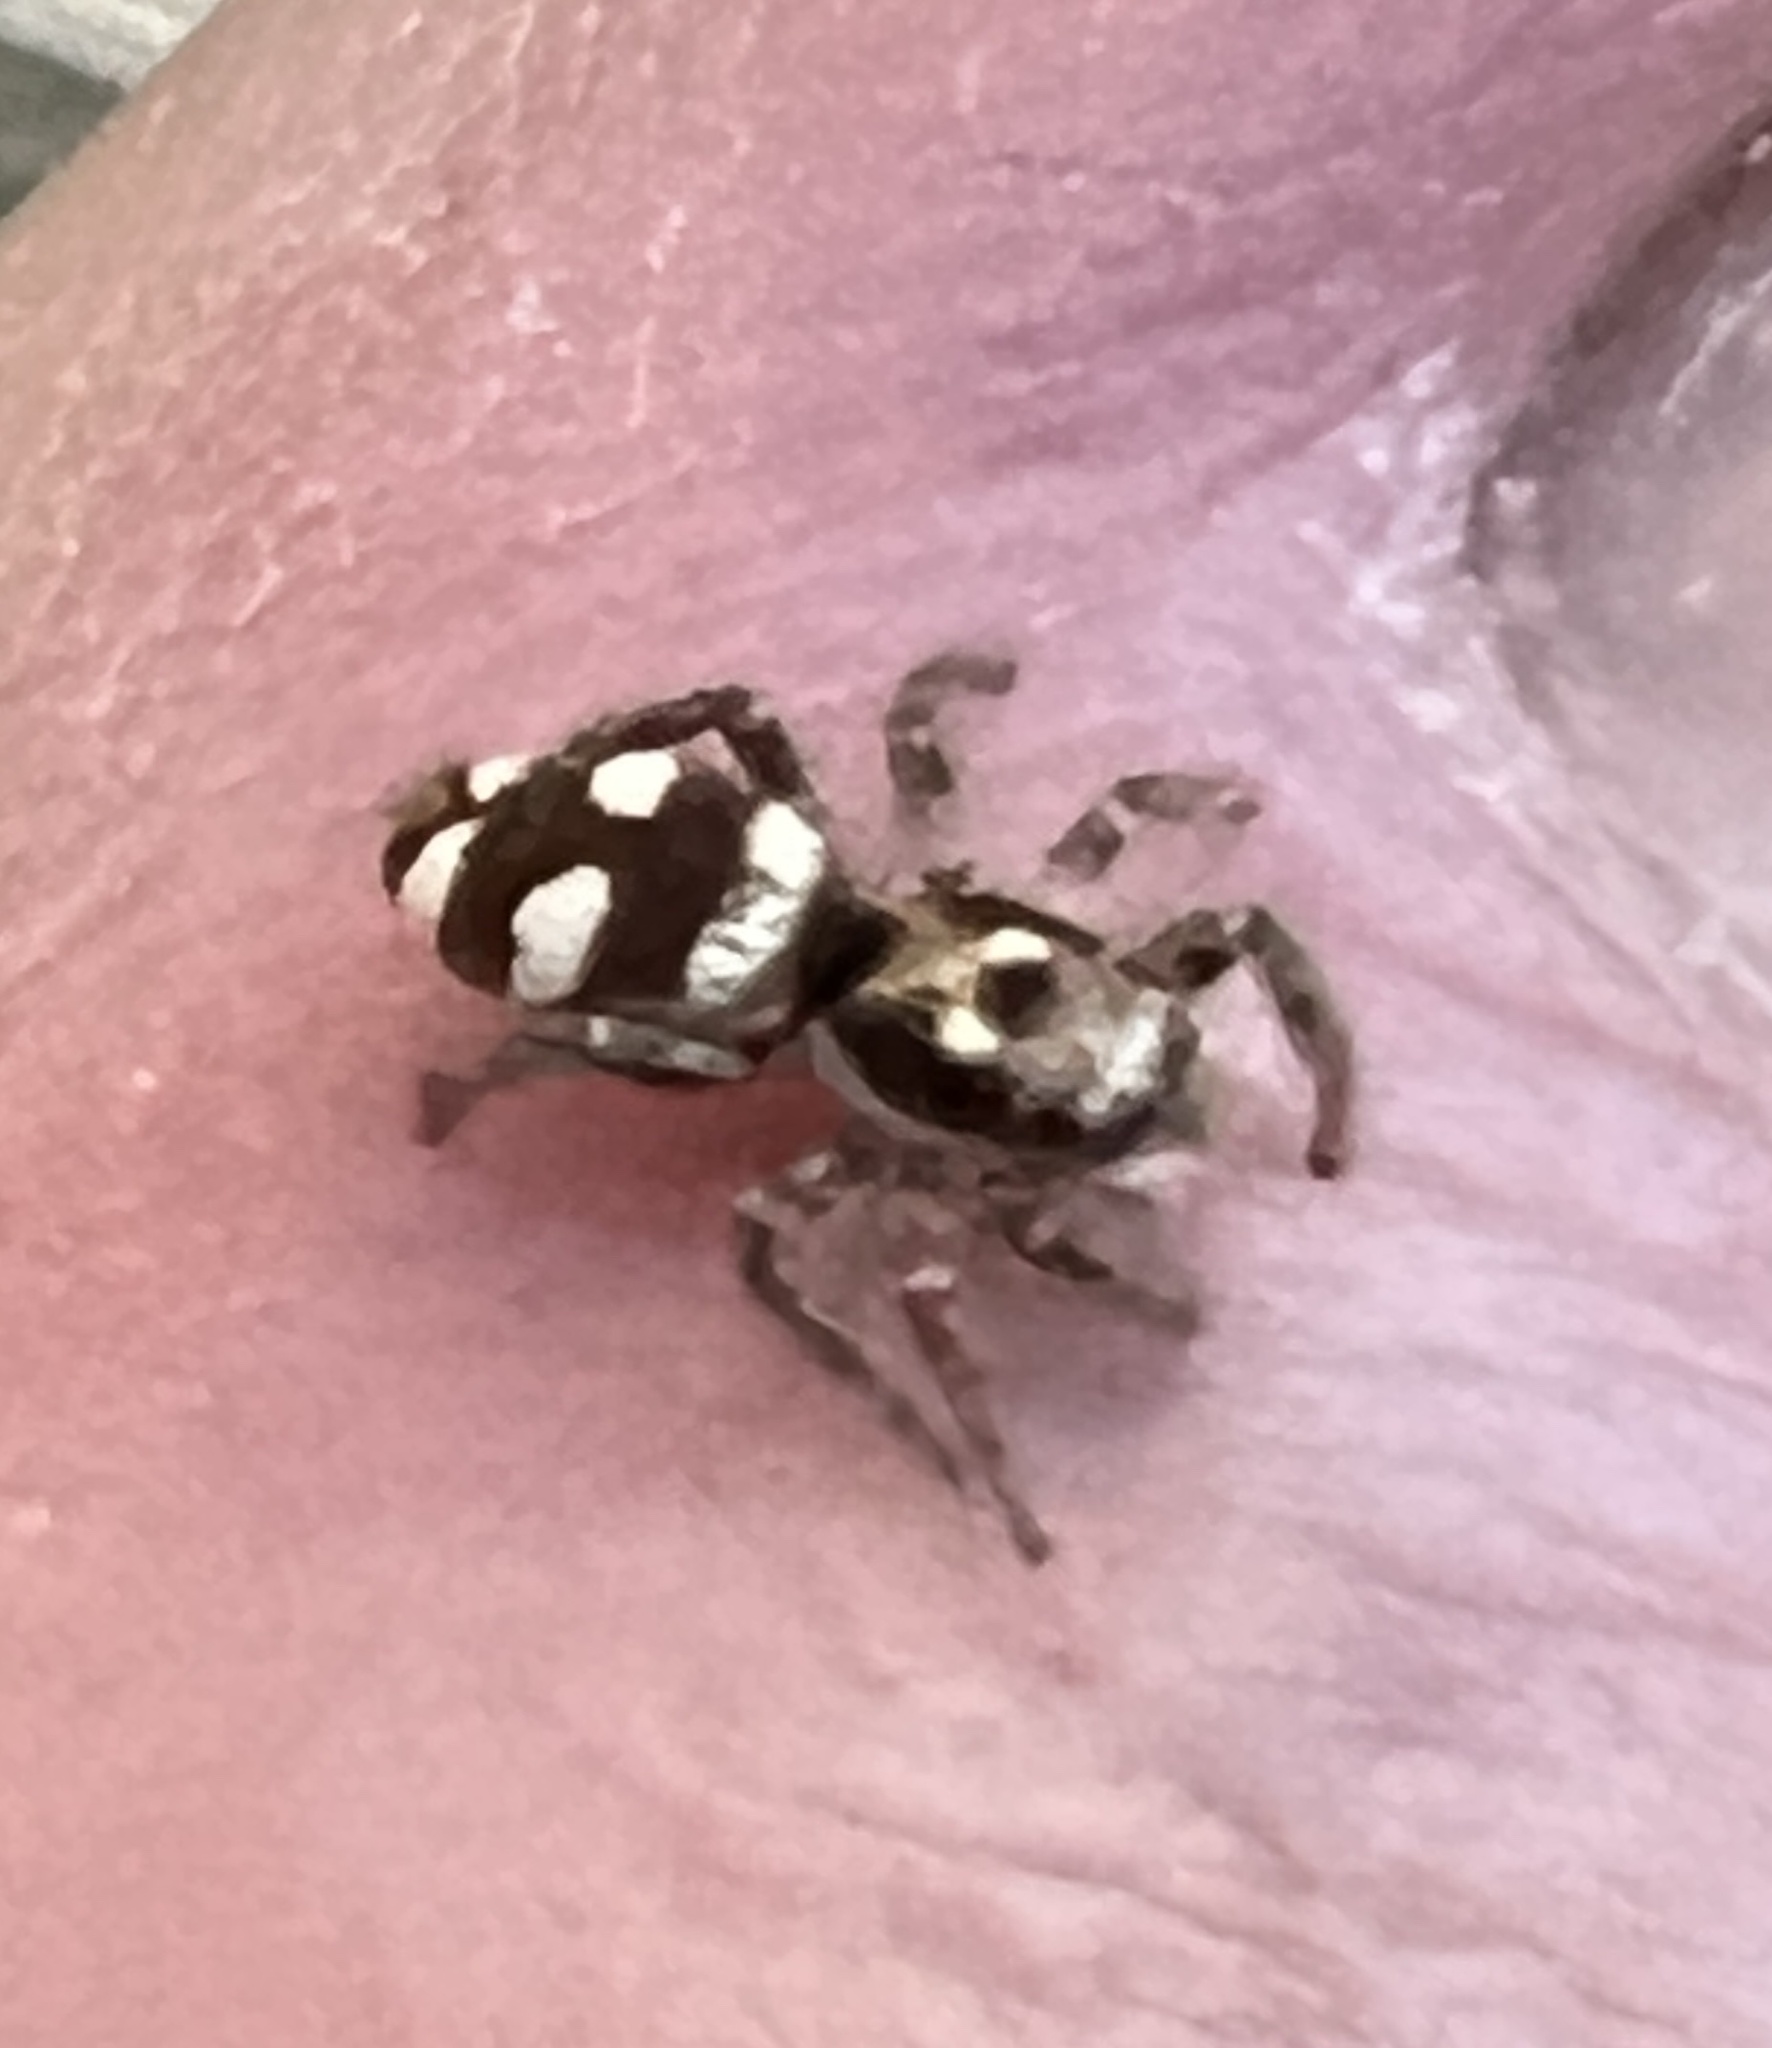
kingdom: Animalia
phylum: Arthropoda
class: Arachnida
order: Araneae
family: Salticidae
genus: Salticus
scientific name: Salticus scenicus
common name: Zebra jumper
